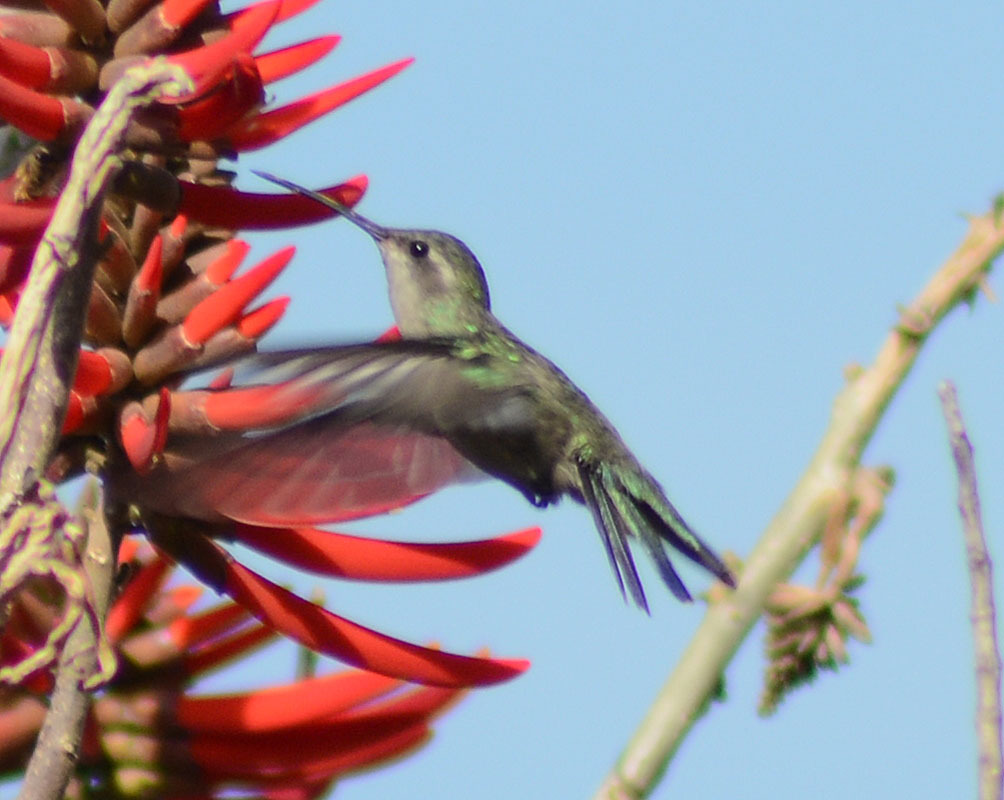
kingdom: Animalia
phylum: Chordata
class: Aves
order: Apodiformes
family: Trochilidae
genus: Cynanthus
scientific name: Cynanthus latirostris
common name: Broad-billed hummingbird
